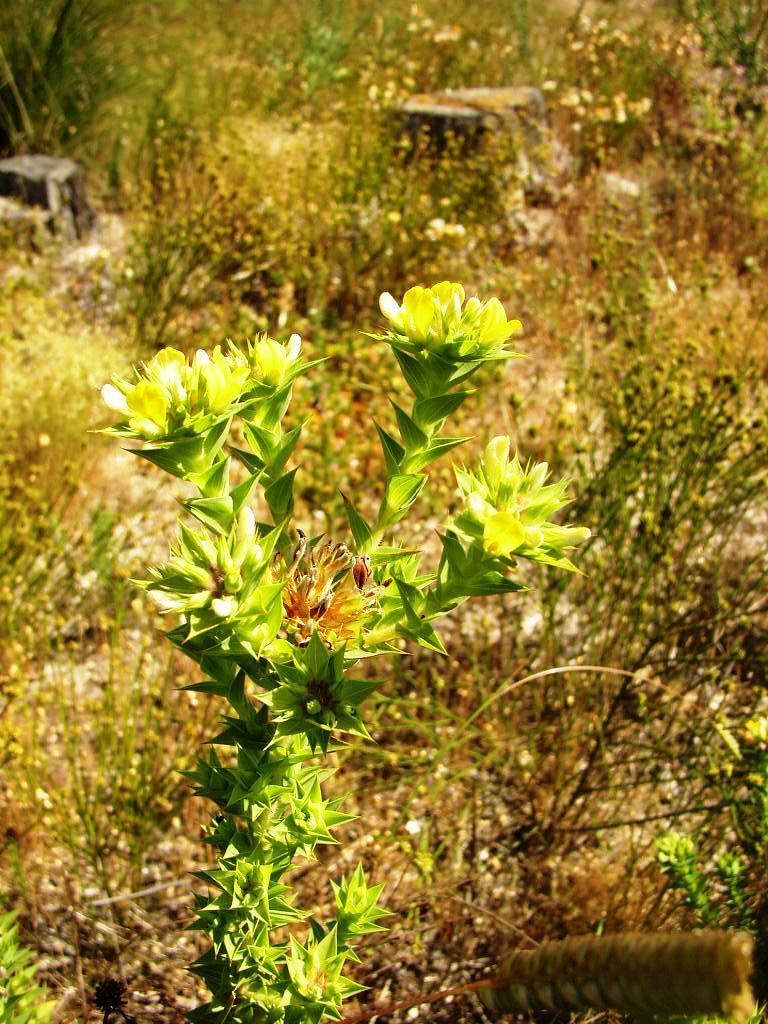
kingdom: Plantae
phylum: Tracheophyta
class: Magnoliopsida
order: Fabales
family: Fabaceae
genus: Aspalathus
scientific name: Aspalathus cordata
